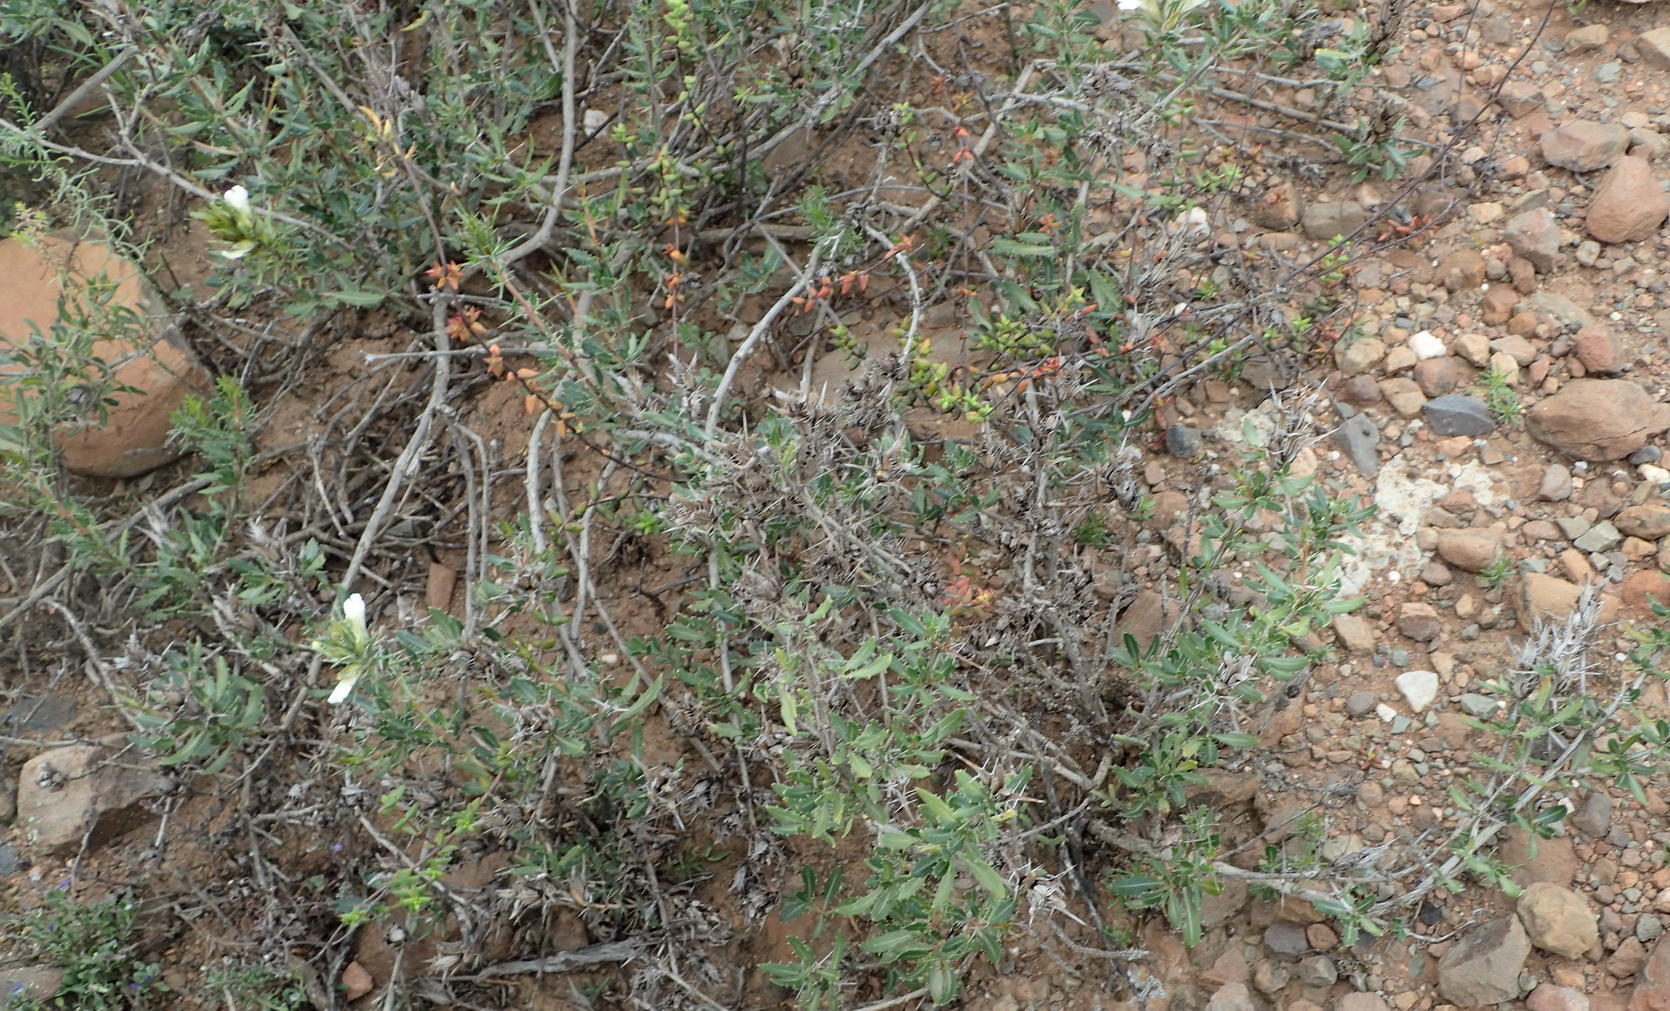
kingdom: Plantae
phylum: Tracheophyta
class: Magnoliopsida
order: Lamiales
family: Acanthaceae
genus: Blepharis
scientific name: Blepharis capensis
